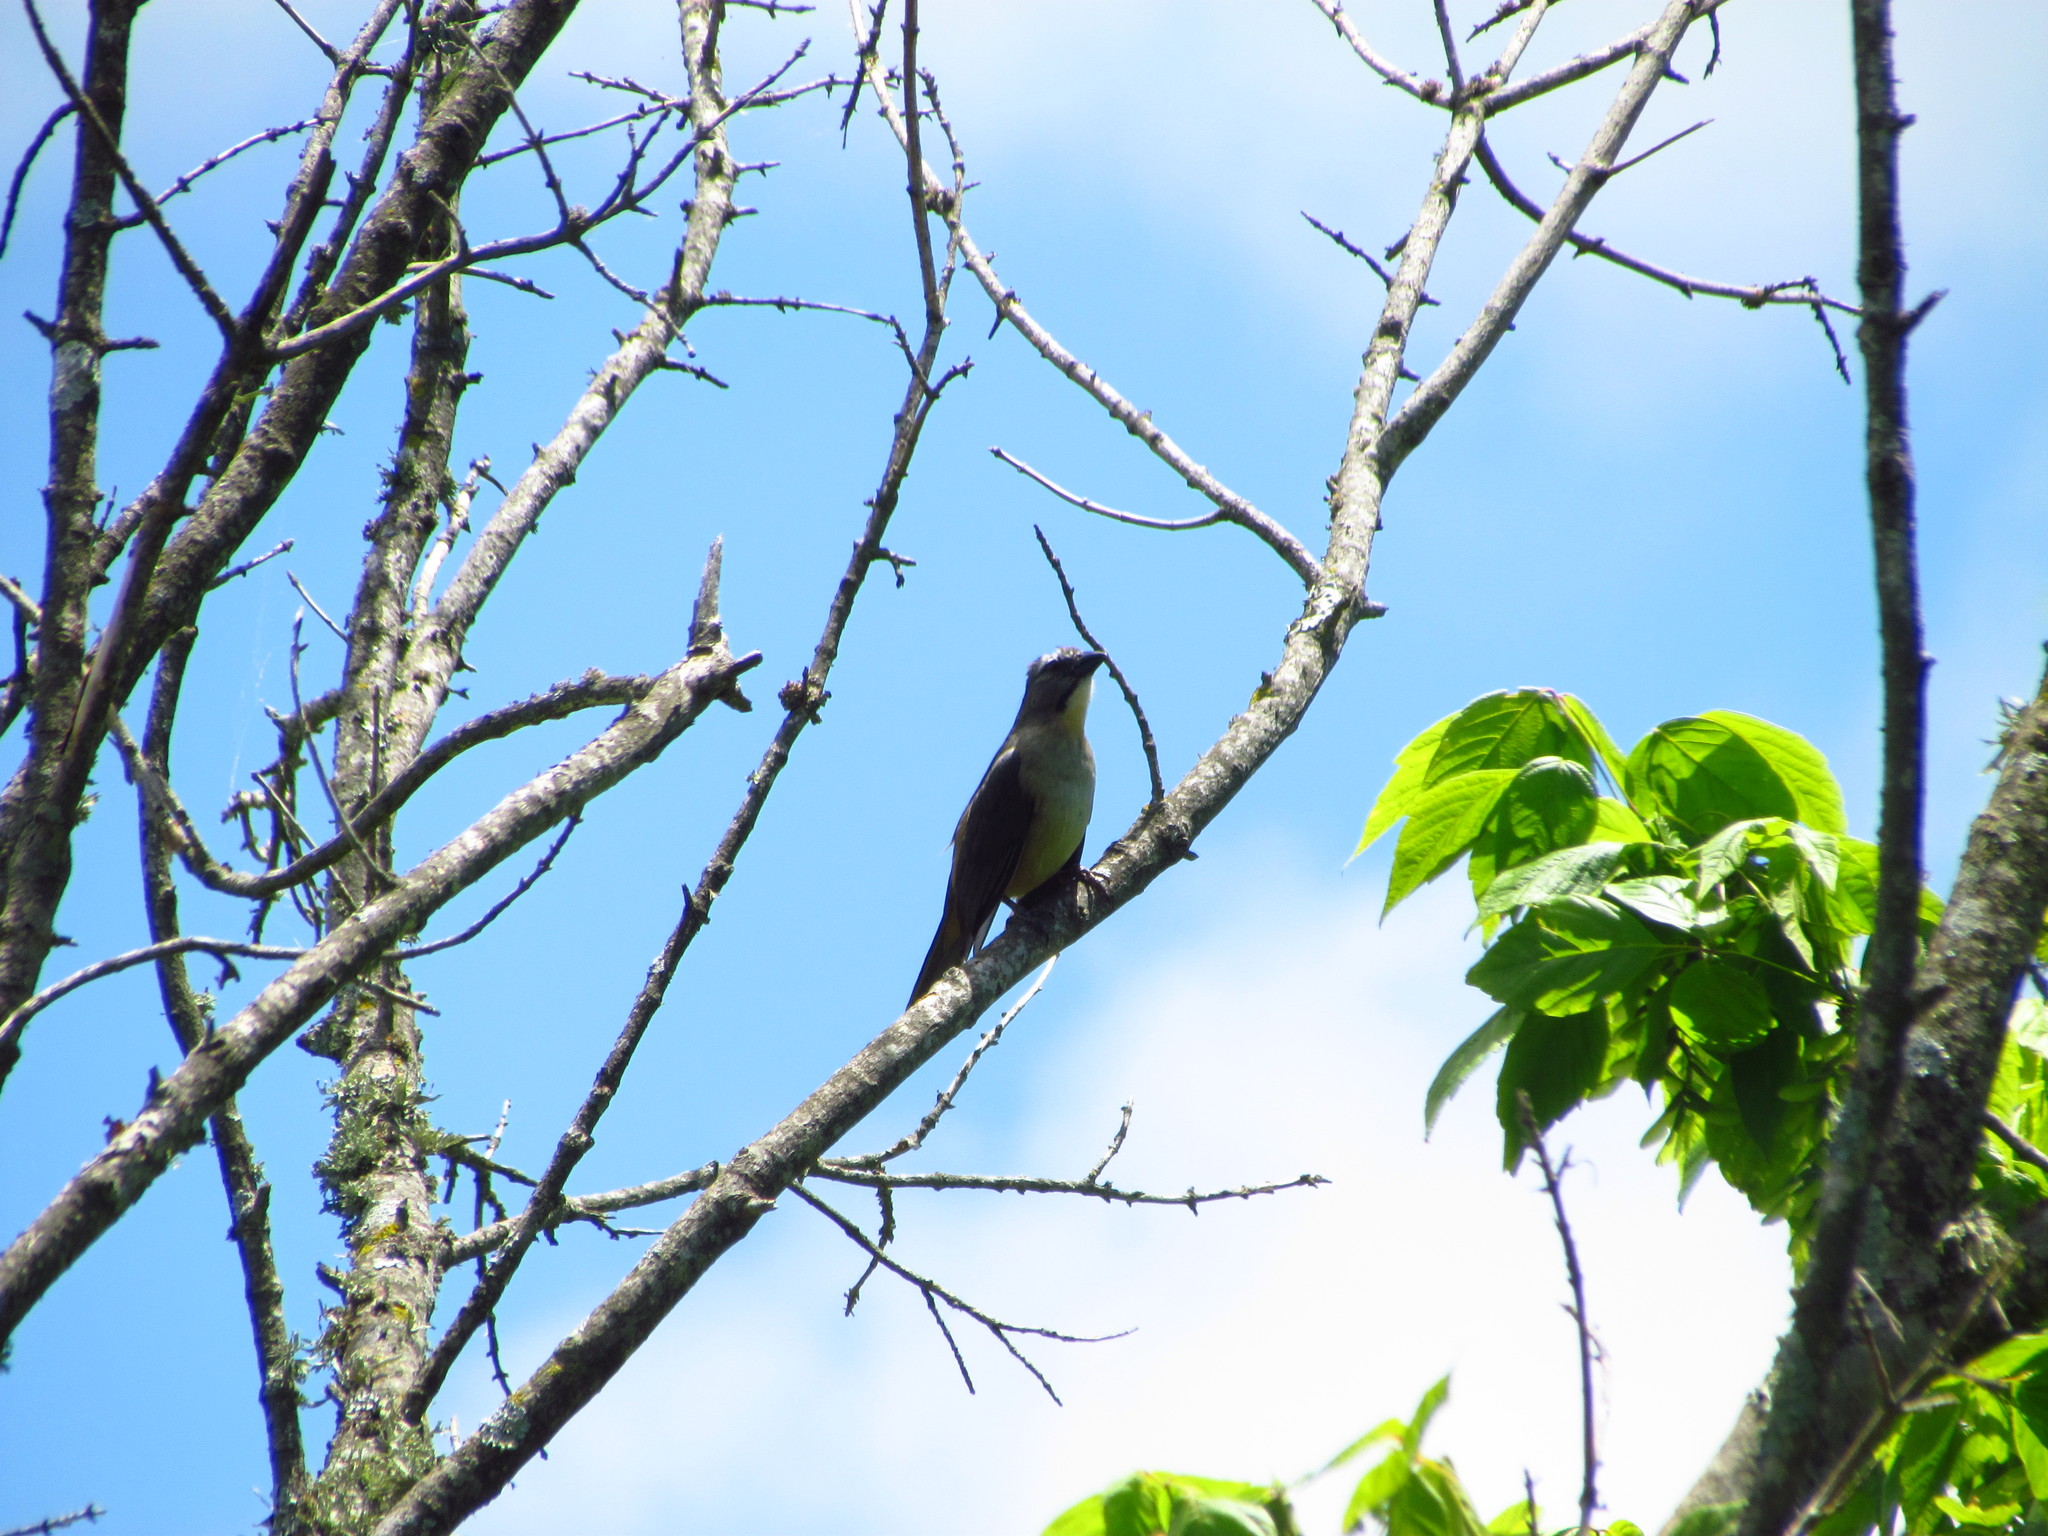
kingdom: Animalia
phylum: Chordata
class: Aves
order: Passeriformes
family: Thraupidae
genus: Saltator
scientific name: Saltator coerulescens
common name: Grayish saltator
